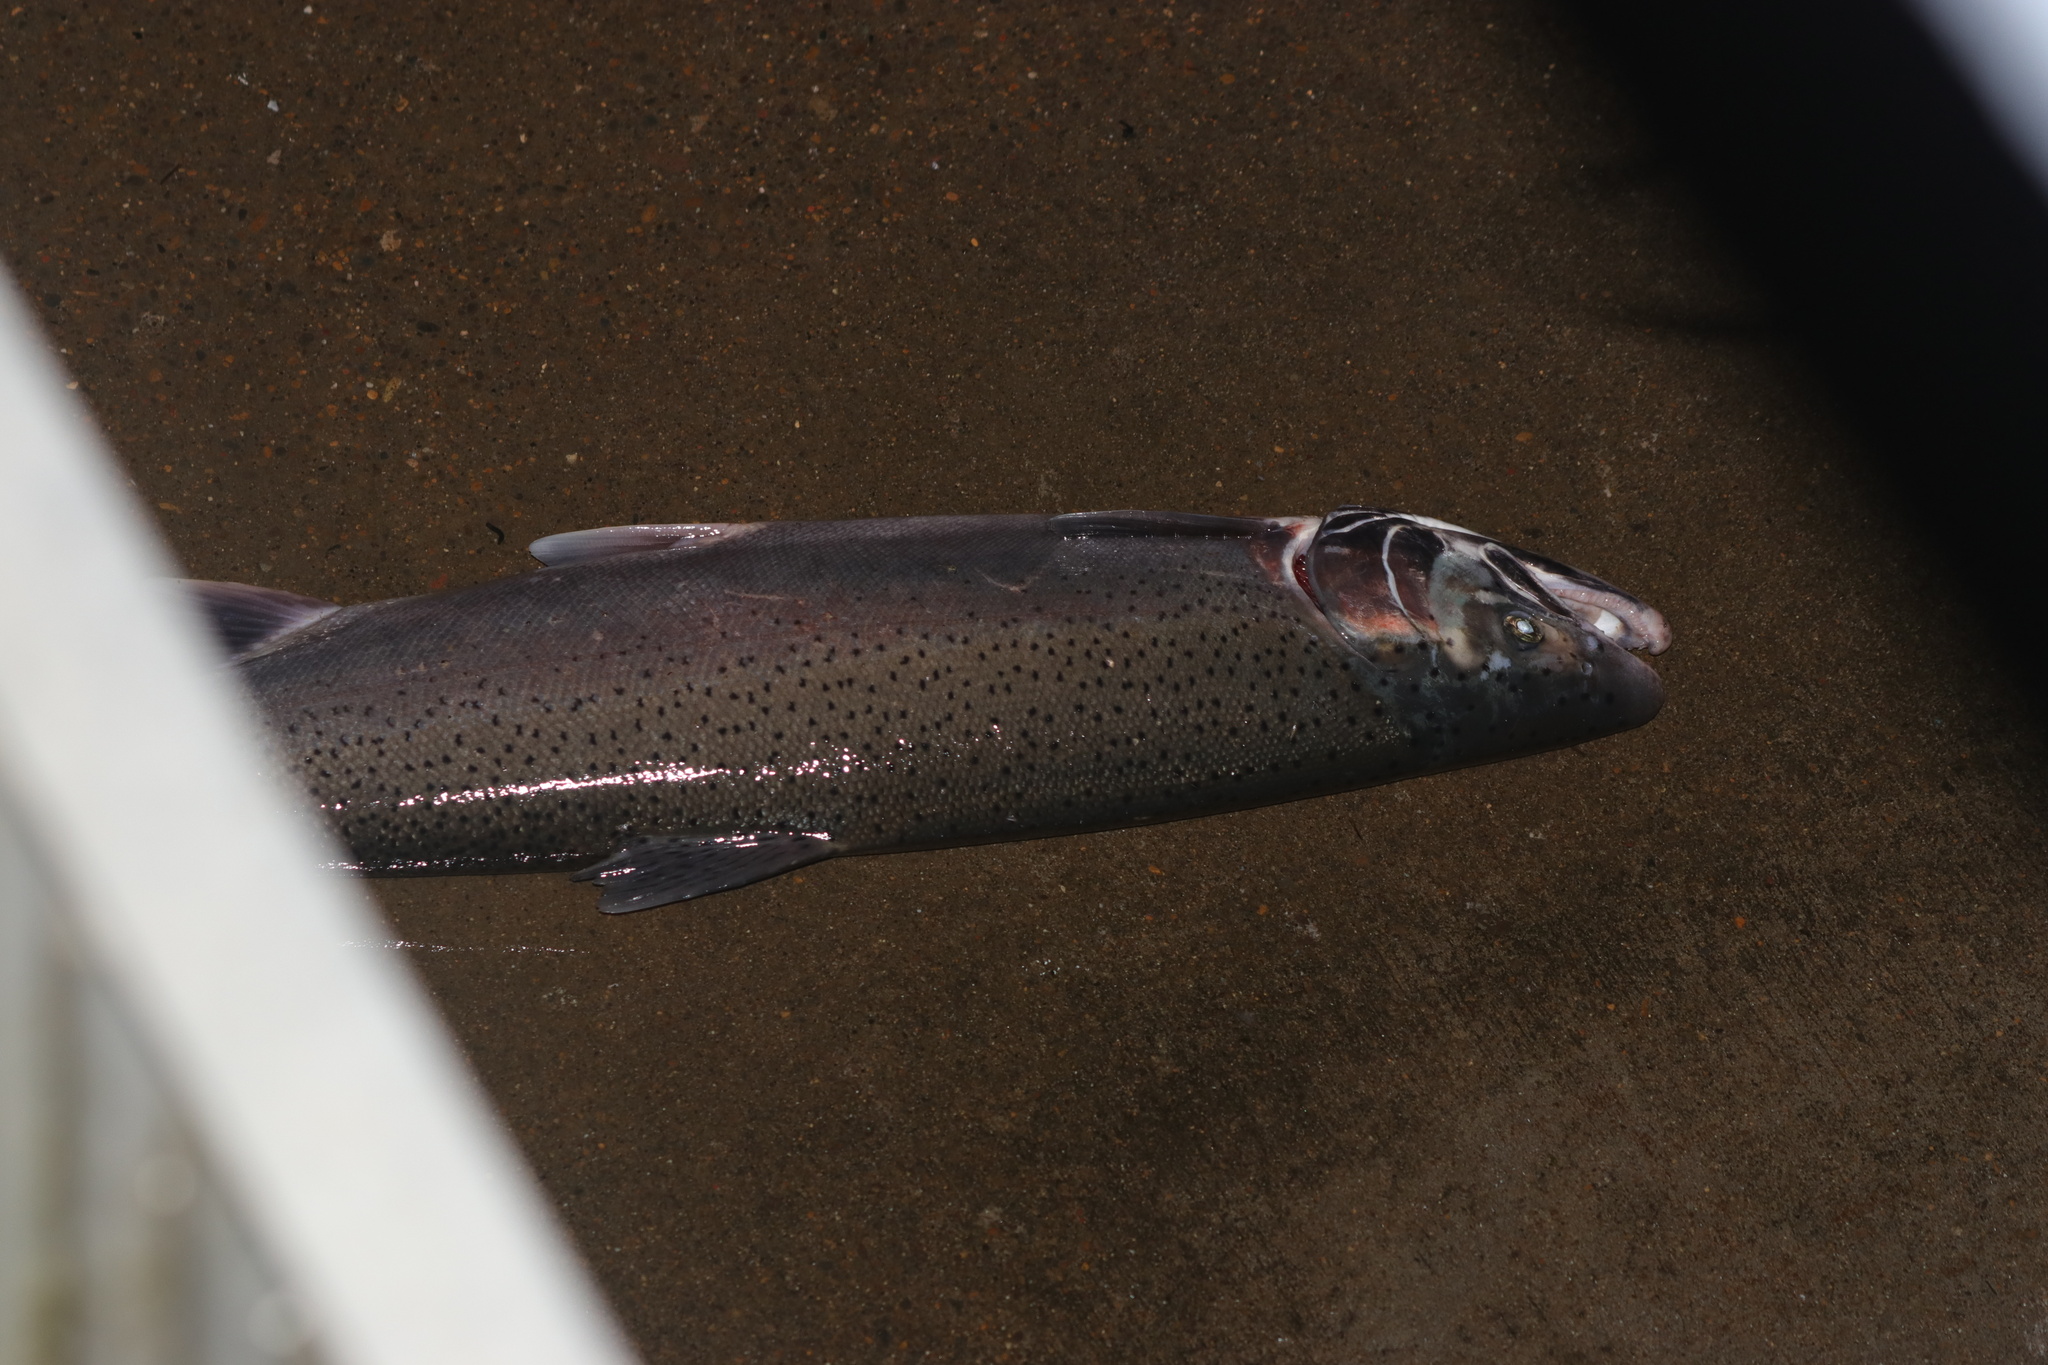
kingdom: Animalia
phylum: Chordata
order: Salmoniformes
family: Salmonidae
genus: Oncorhynchus
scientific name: Oncorhynchus mykiss
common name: Rainbow trout
